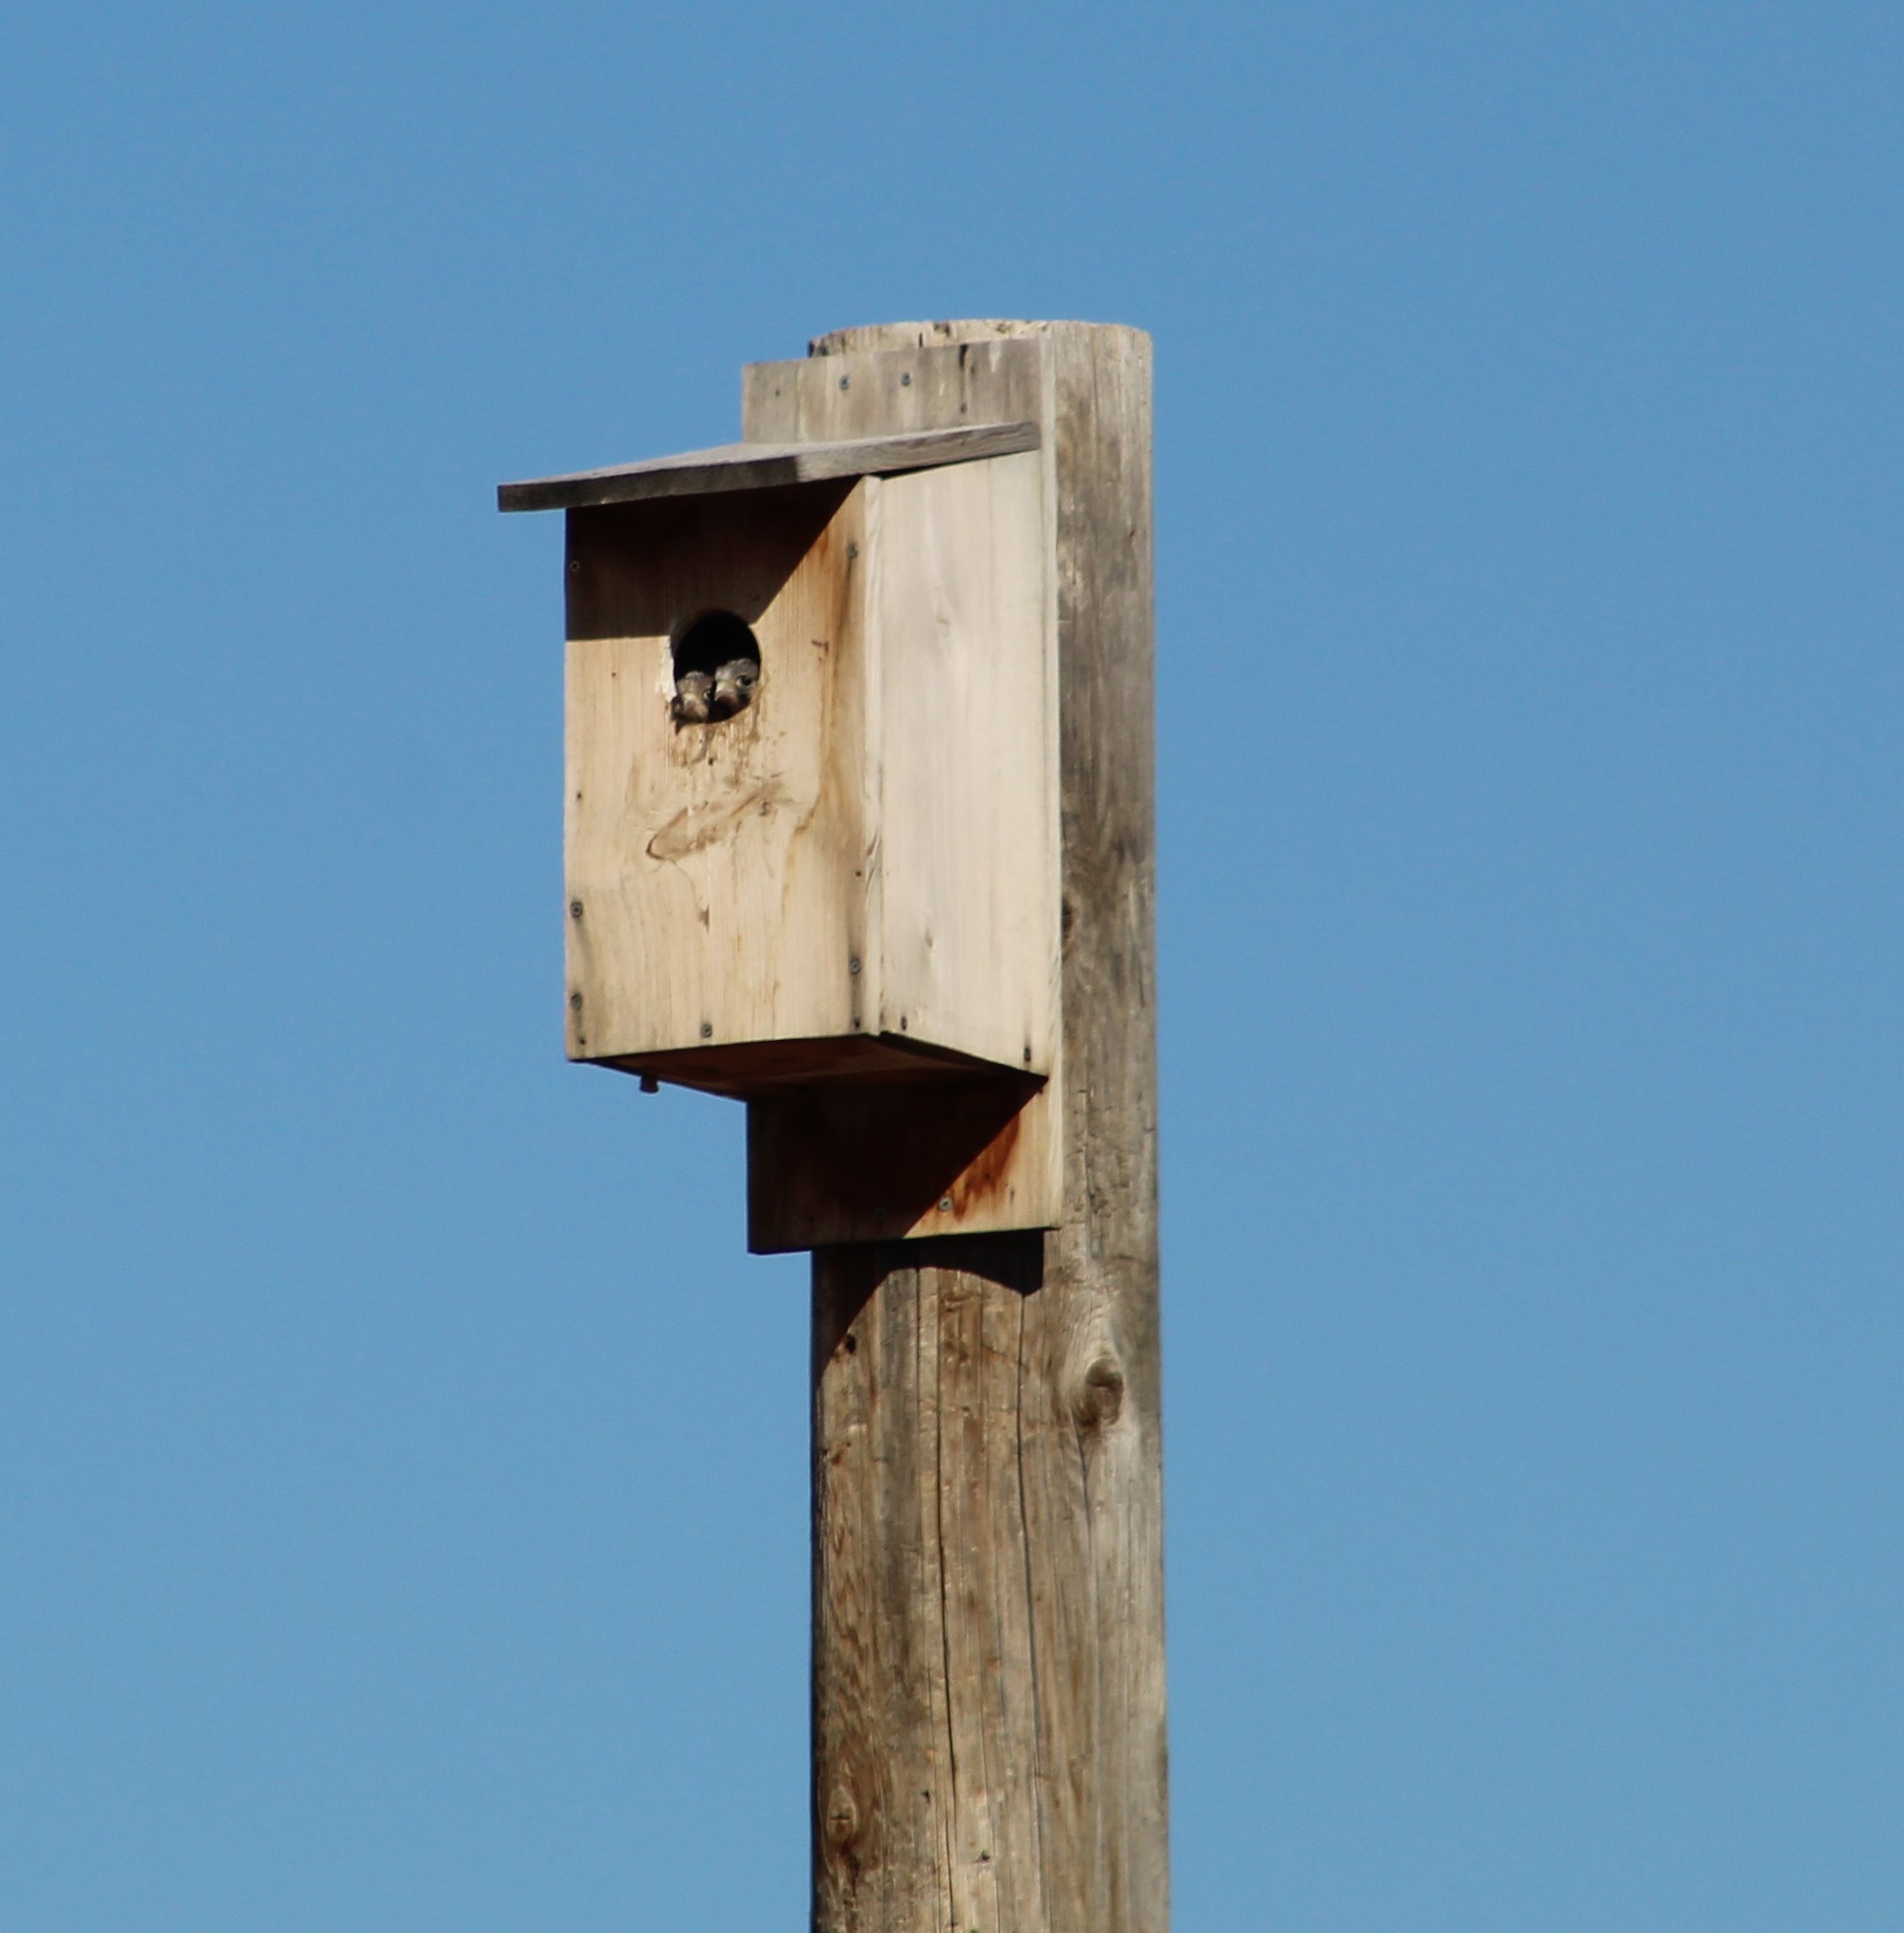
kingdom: Animalia
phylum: Chordata
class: Aves
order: Falconiformes
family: Falconidae
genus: Falco
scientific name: Falco sparverius
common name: American kestrel
